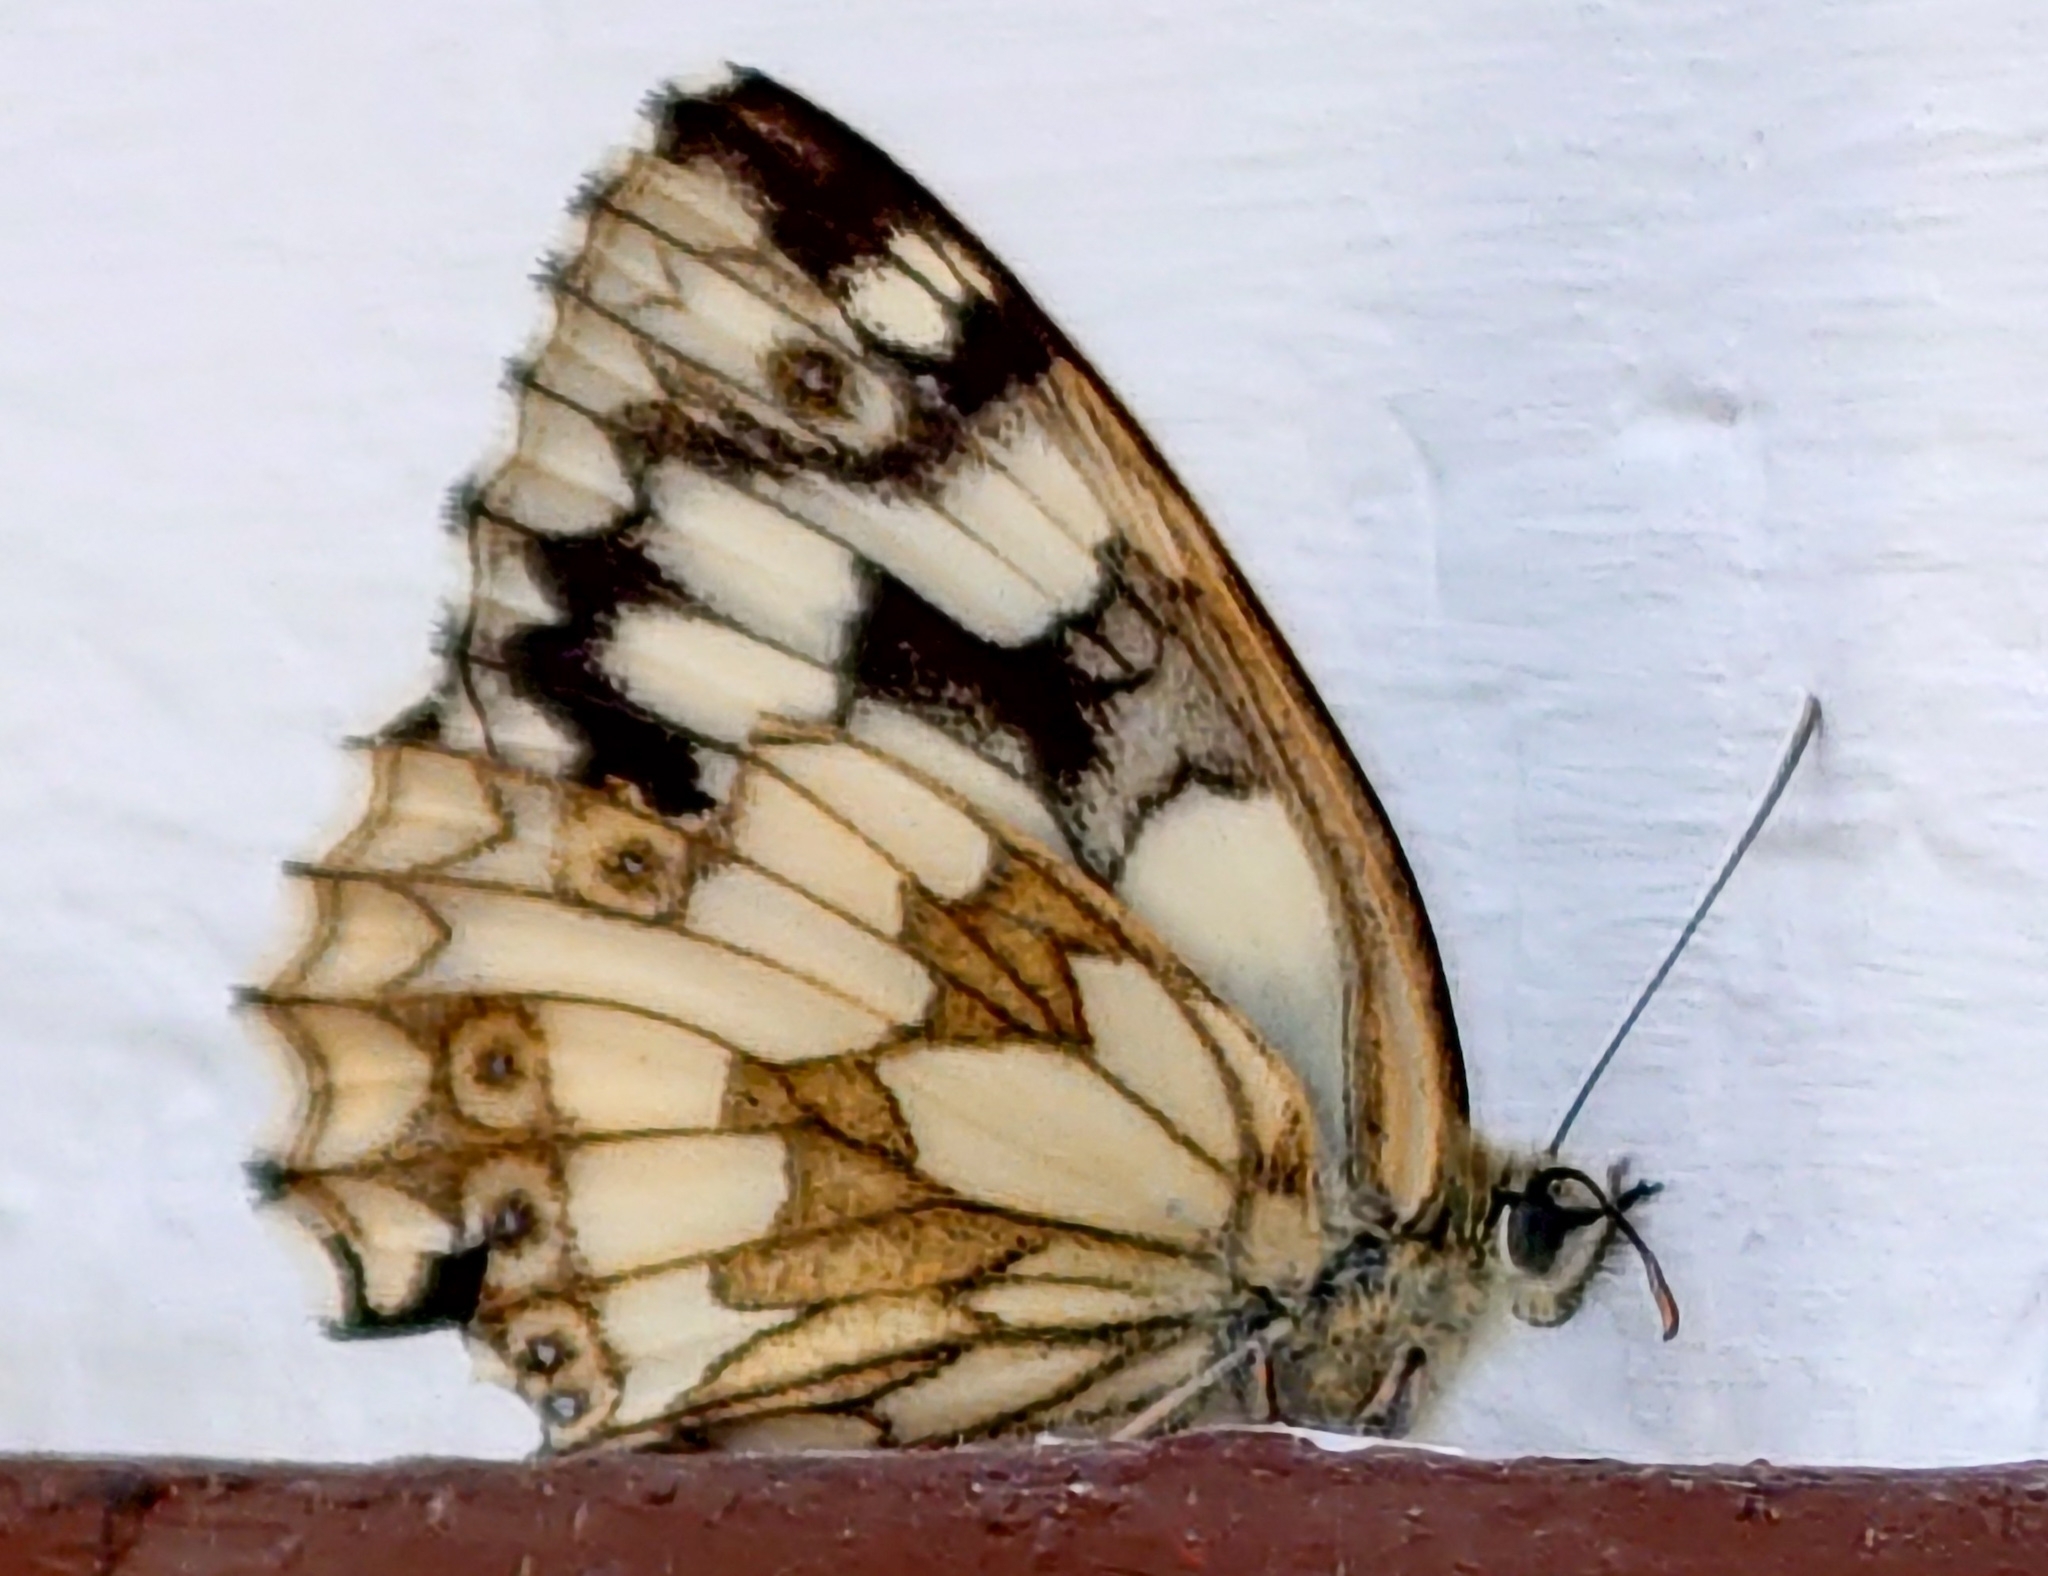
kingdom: Animalia
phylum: Arthropoda
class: Insecta
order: Lepidoptera
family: Nymphalidae
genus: Melanargia
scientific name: Melanargia galathea
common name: Marbled white
